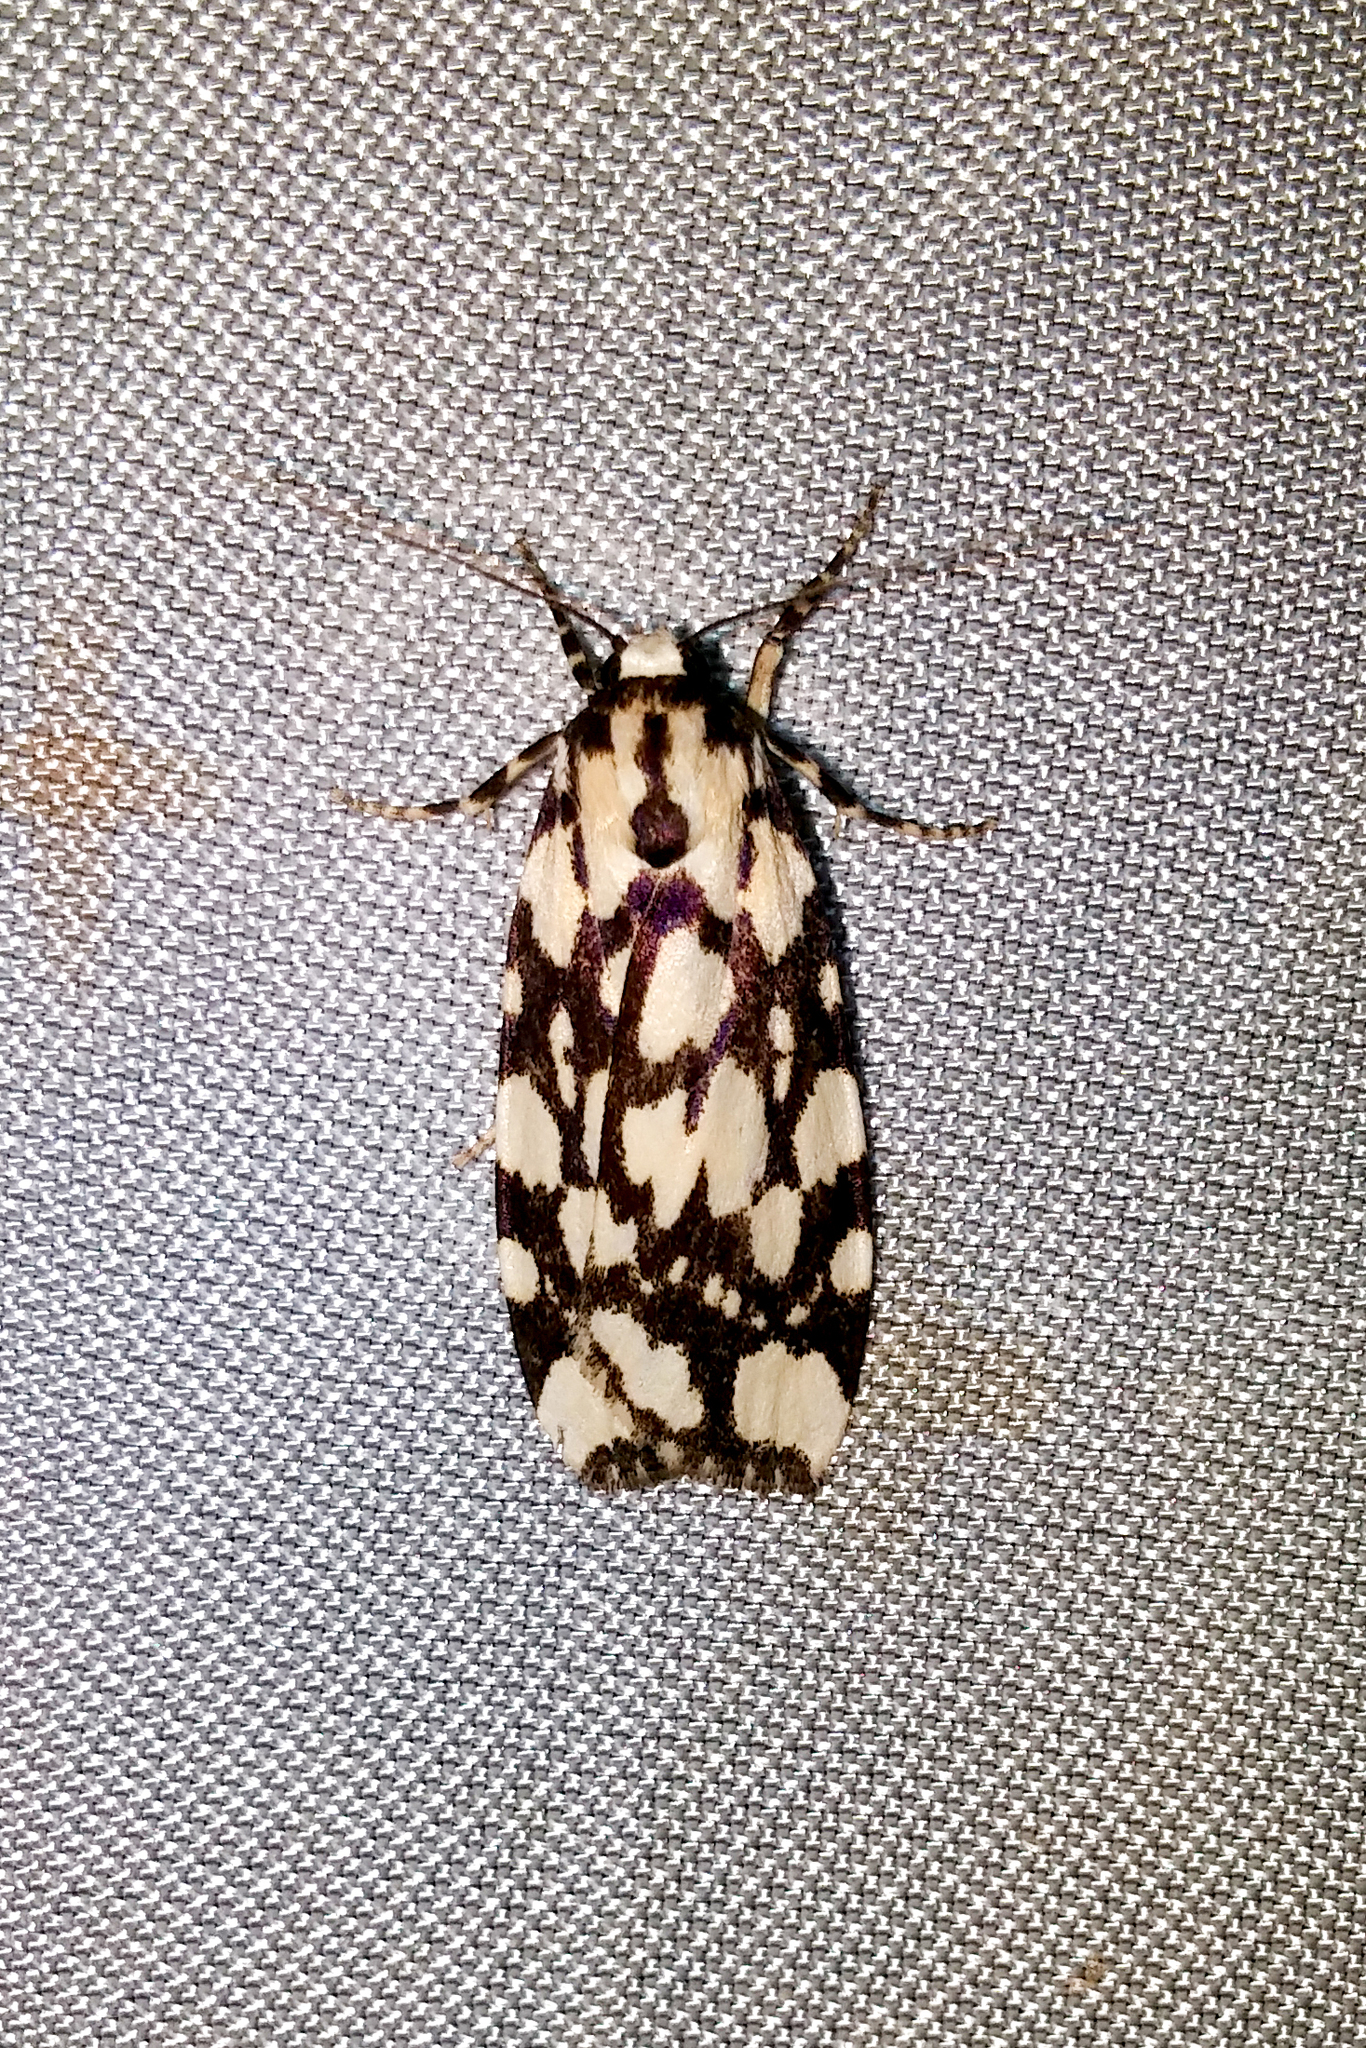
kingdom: Animalia
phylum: Arthropoda
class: Insecta
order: Lepidoptera
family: Erebidae
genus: Cyana
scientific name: Cyana nigroplagata
